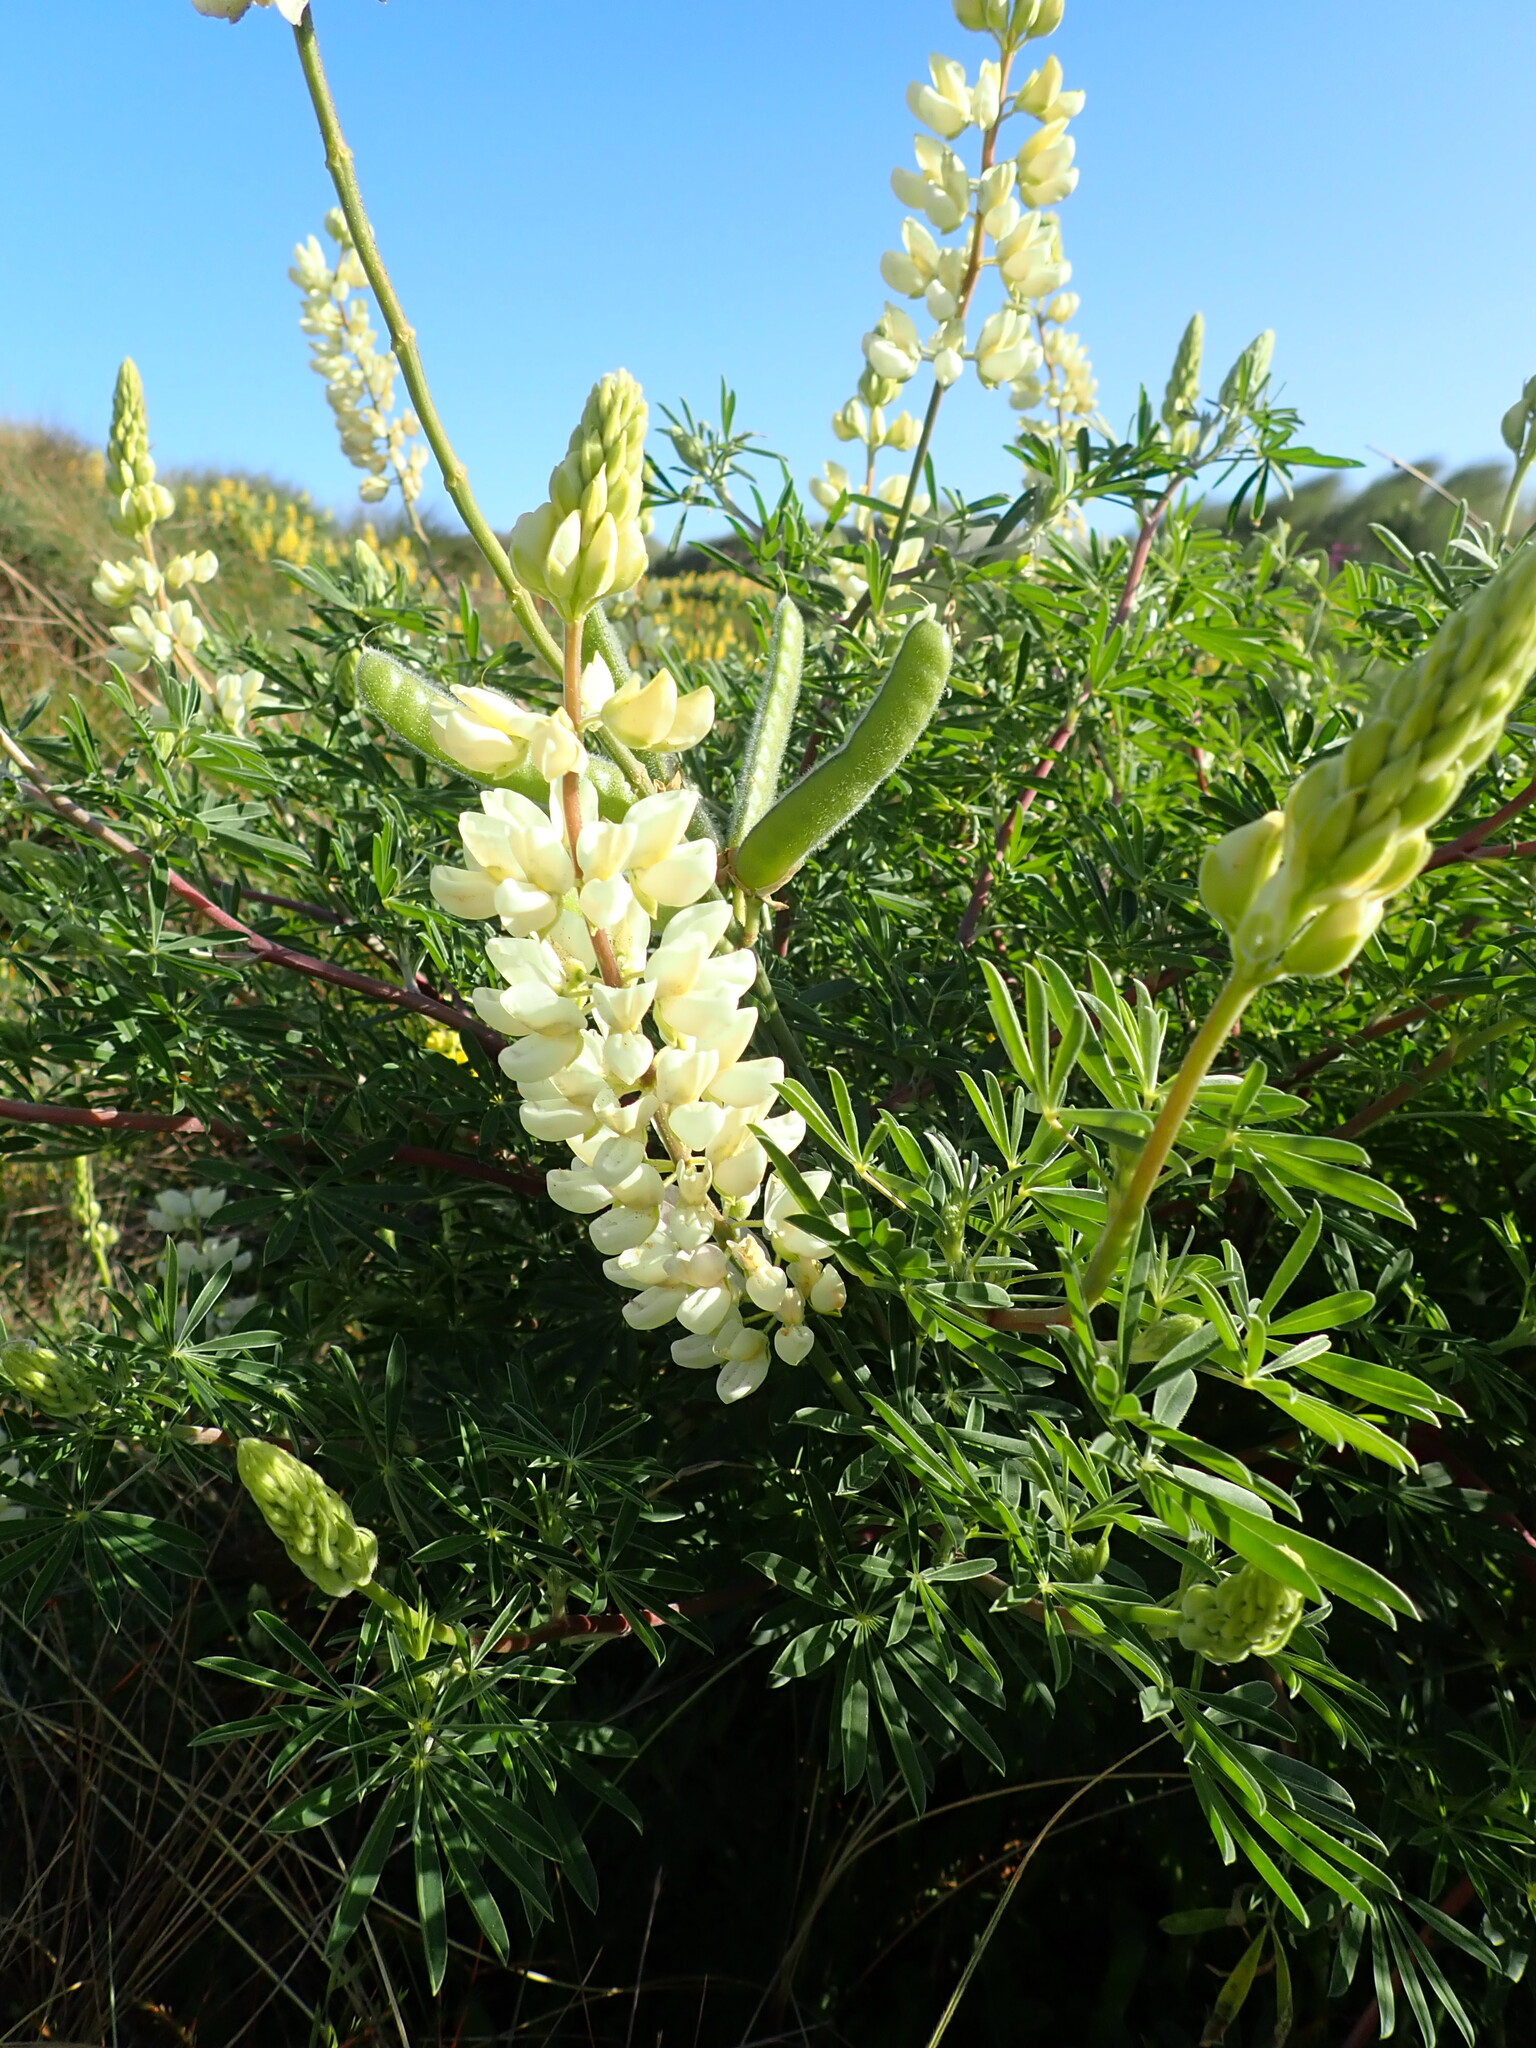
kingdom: Plantae
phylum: Tracheophyta
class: Magnoliopsida
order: Fabales
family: Fabaceae
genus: Lupinus
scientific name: Lupinus arboreus
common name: Yellow bush lupine
